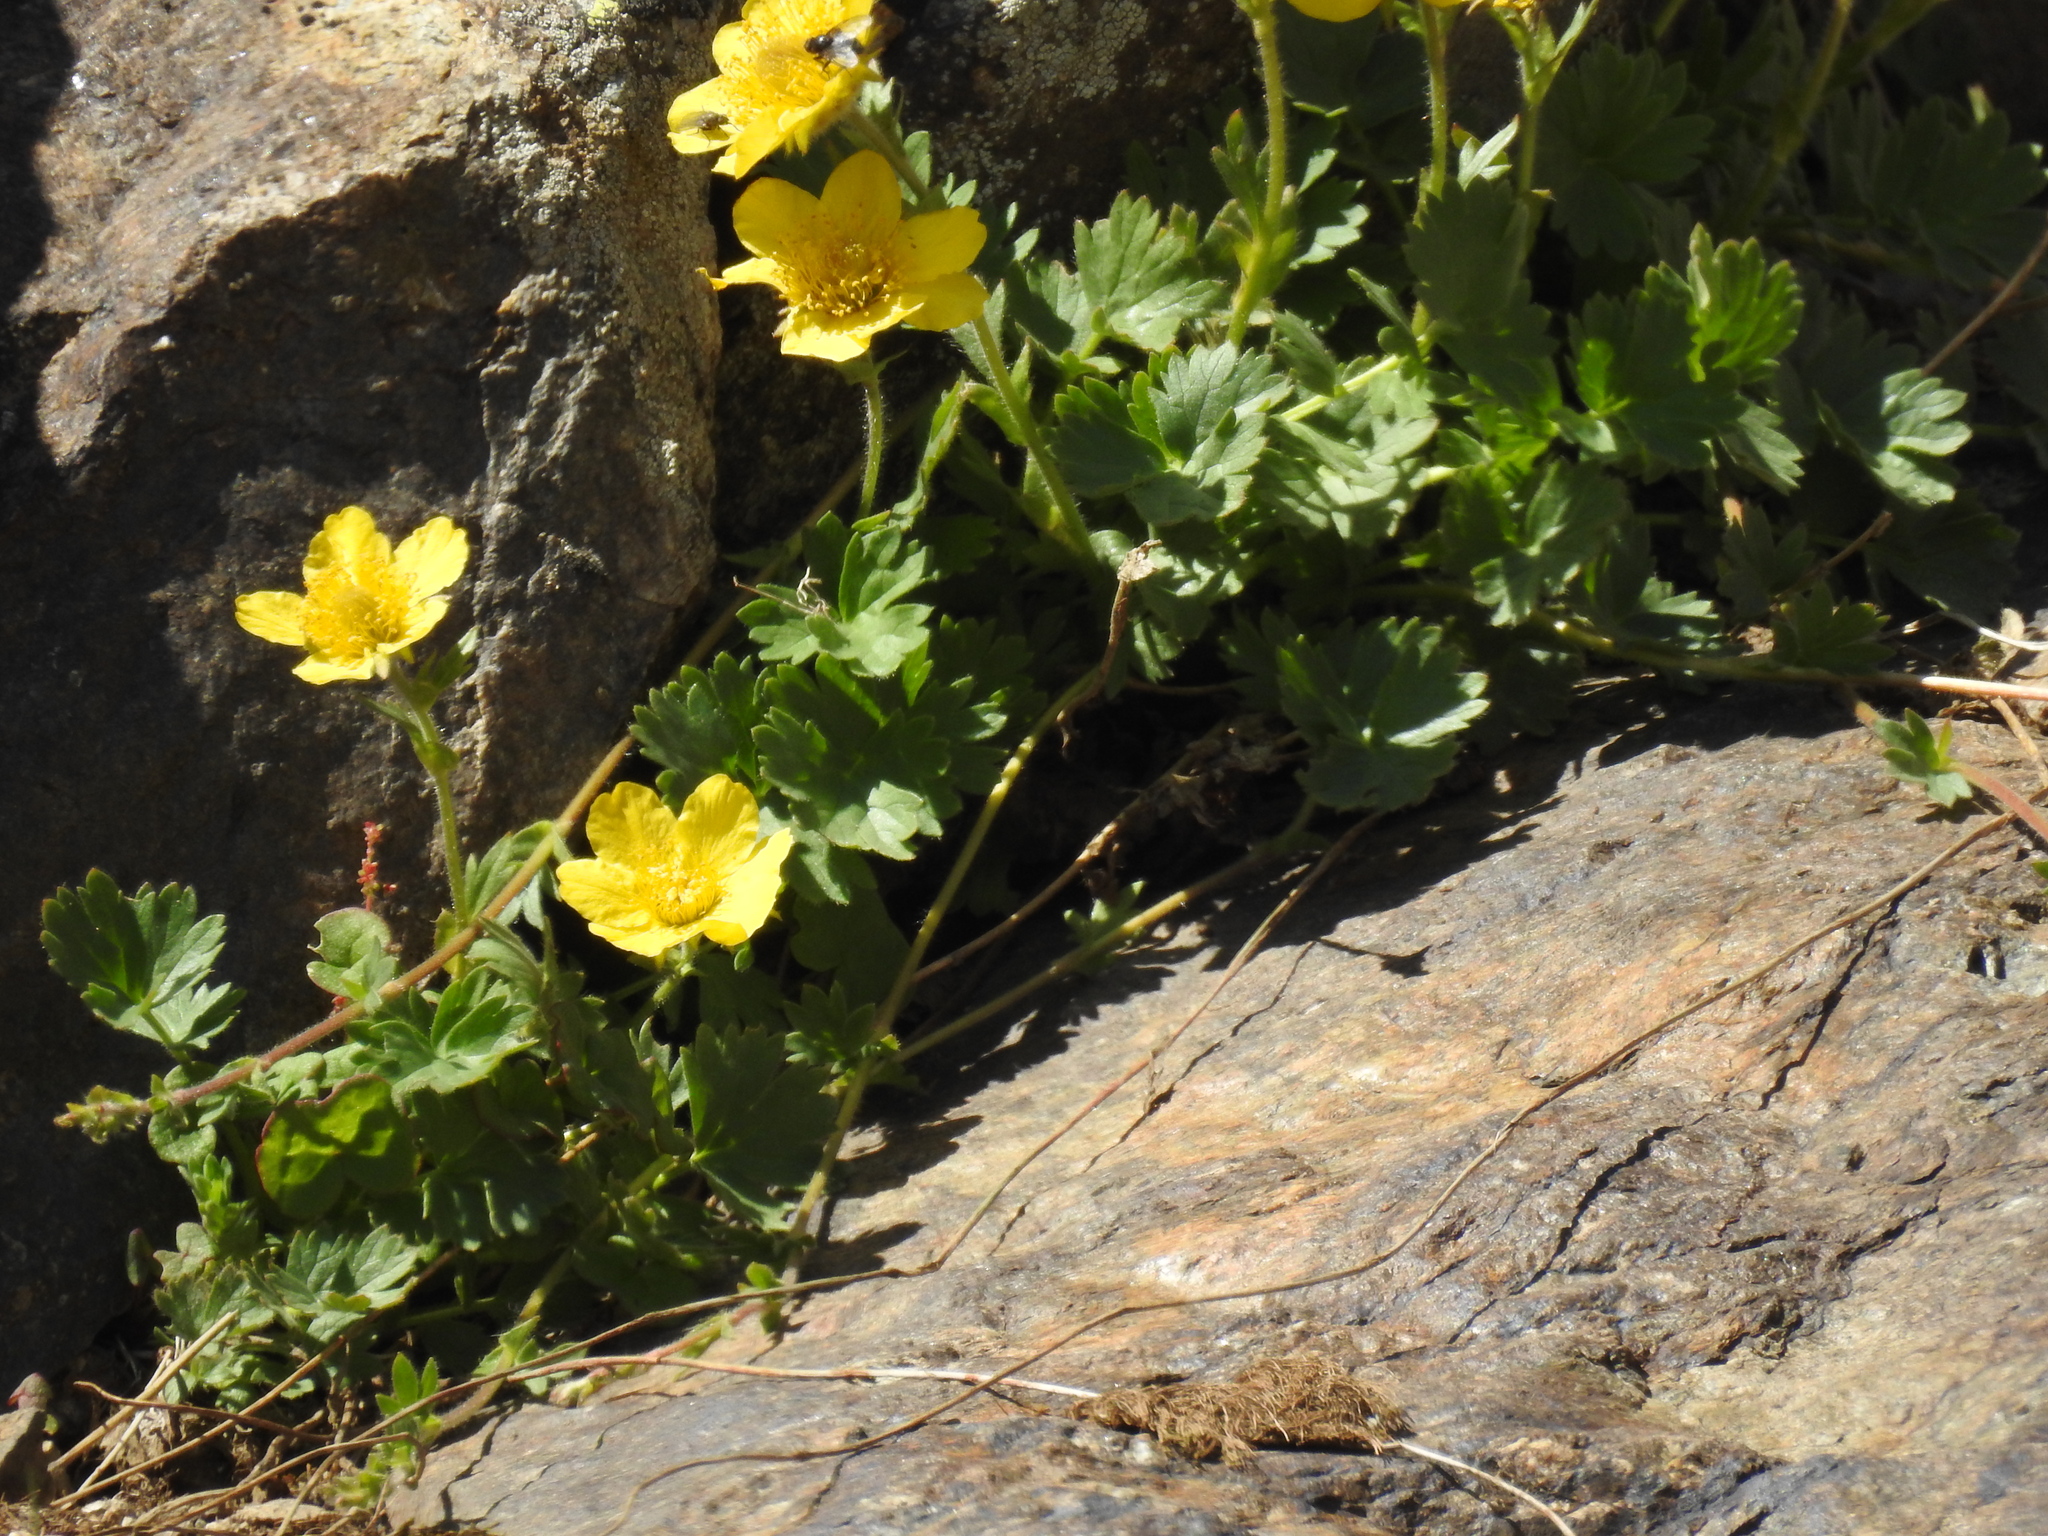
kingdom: Plantae
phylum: Tracheophyta
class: Magnoliopsida
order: Rosales
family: Rosaceae
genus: Geum
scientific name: Geum reptans
